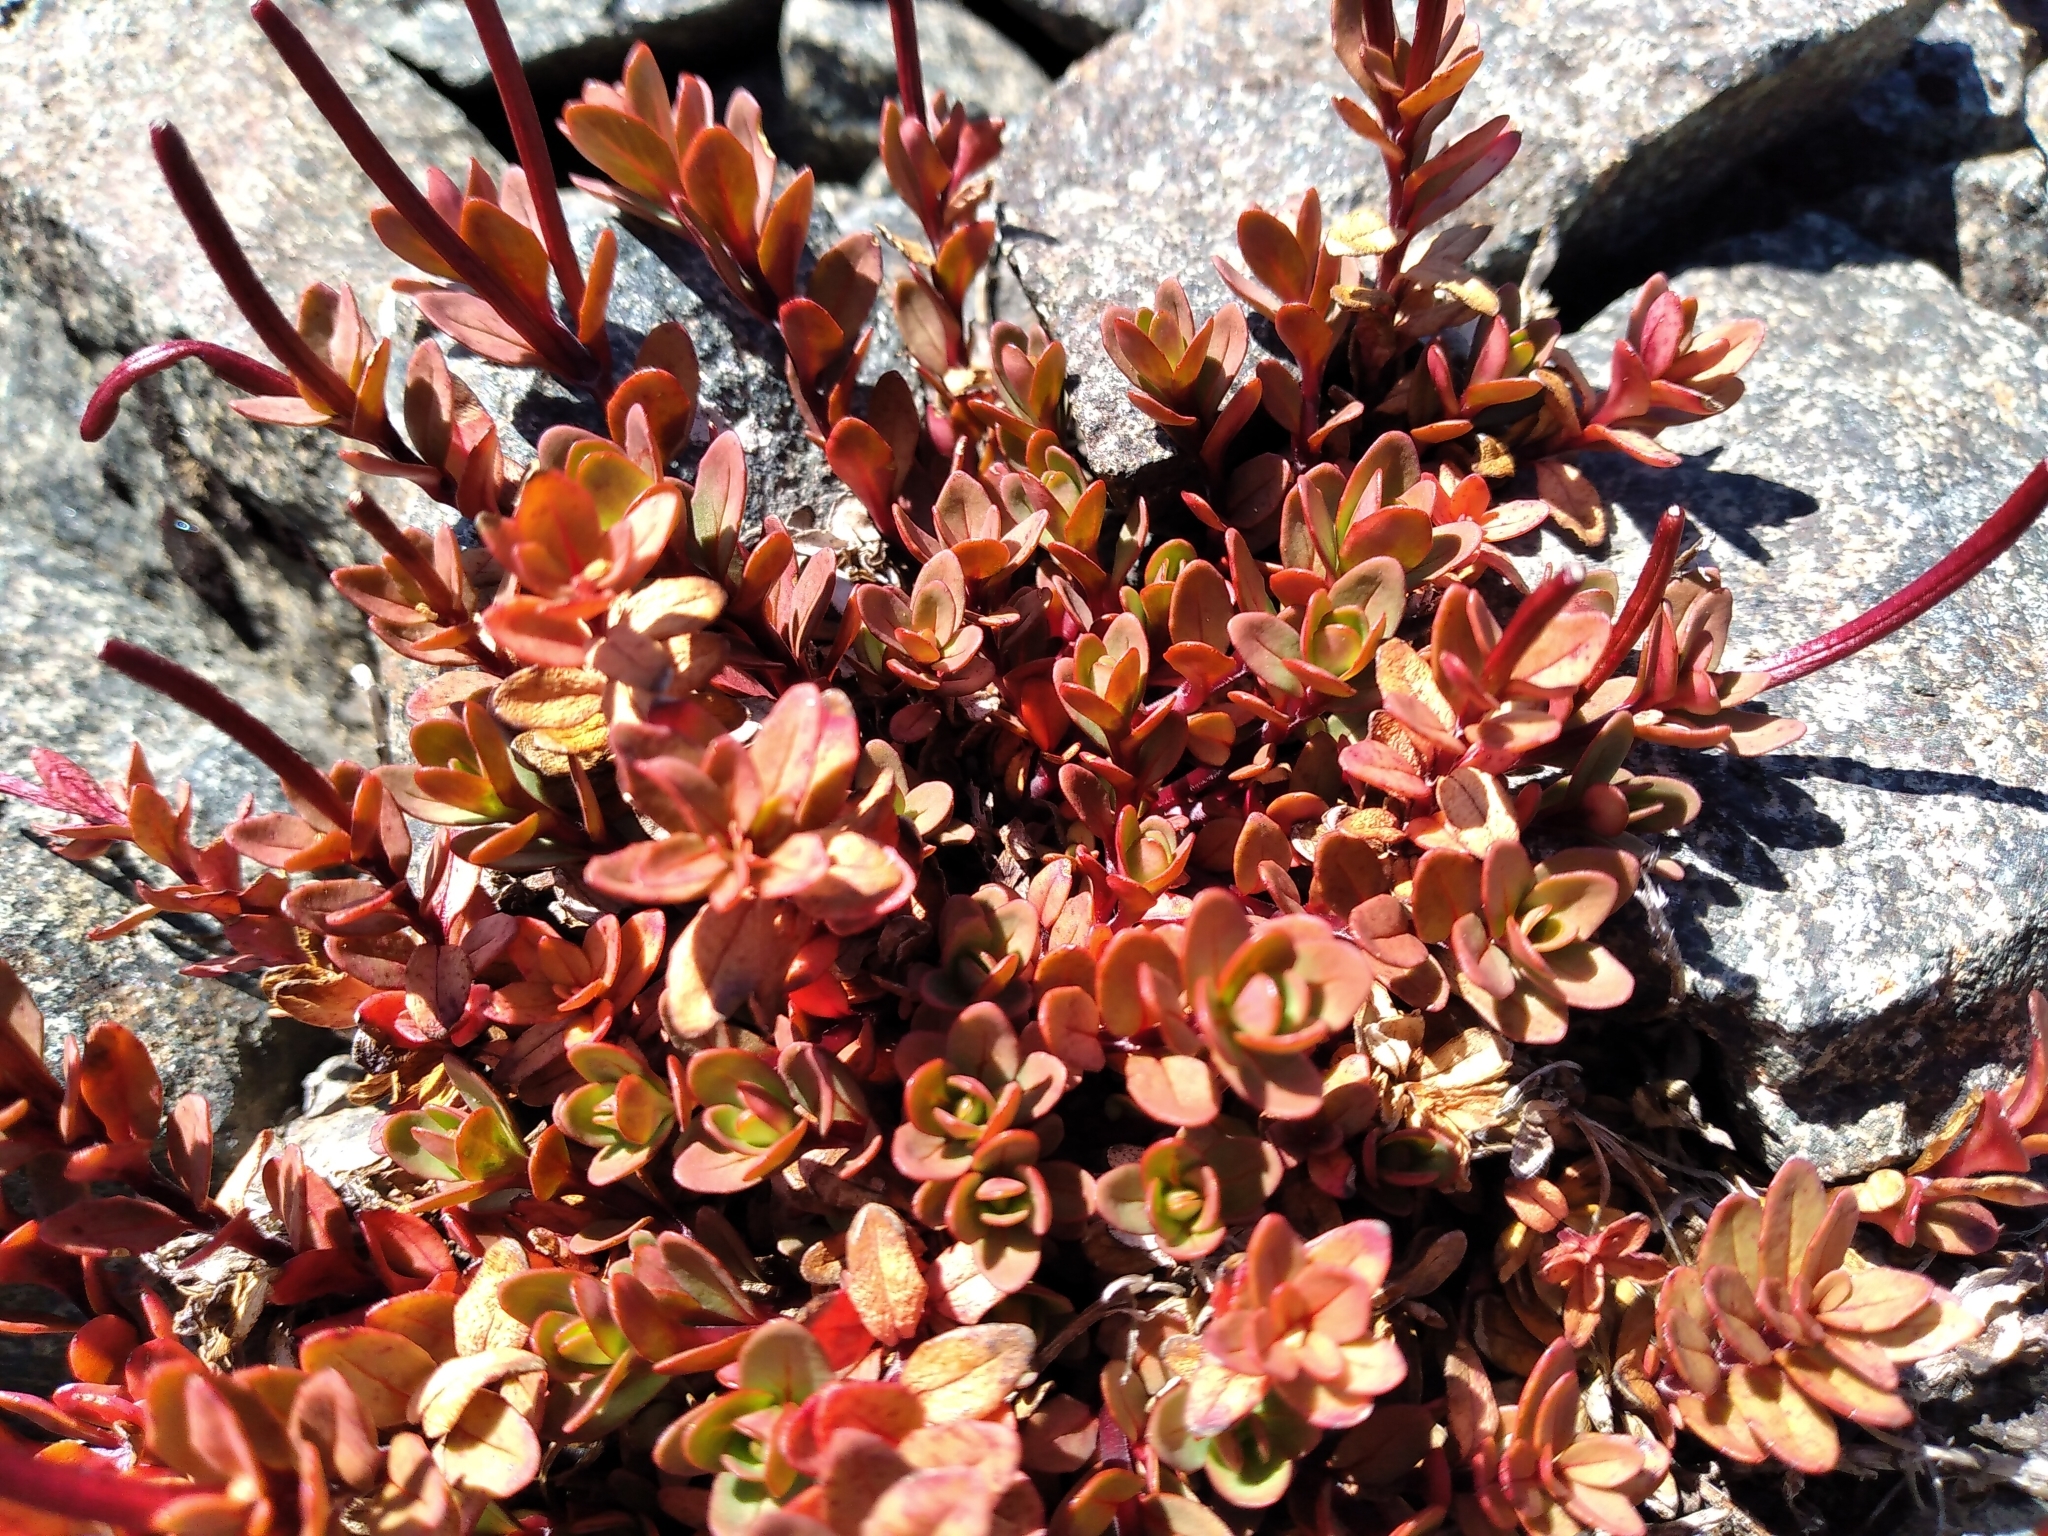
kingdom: Plantae
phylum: Tracheophyta
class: Magnoliopsida
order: Myrtales
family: Onagraceae
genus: Epilobium
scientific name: Epilobium porphyrium
